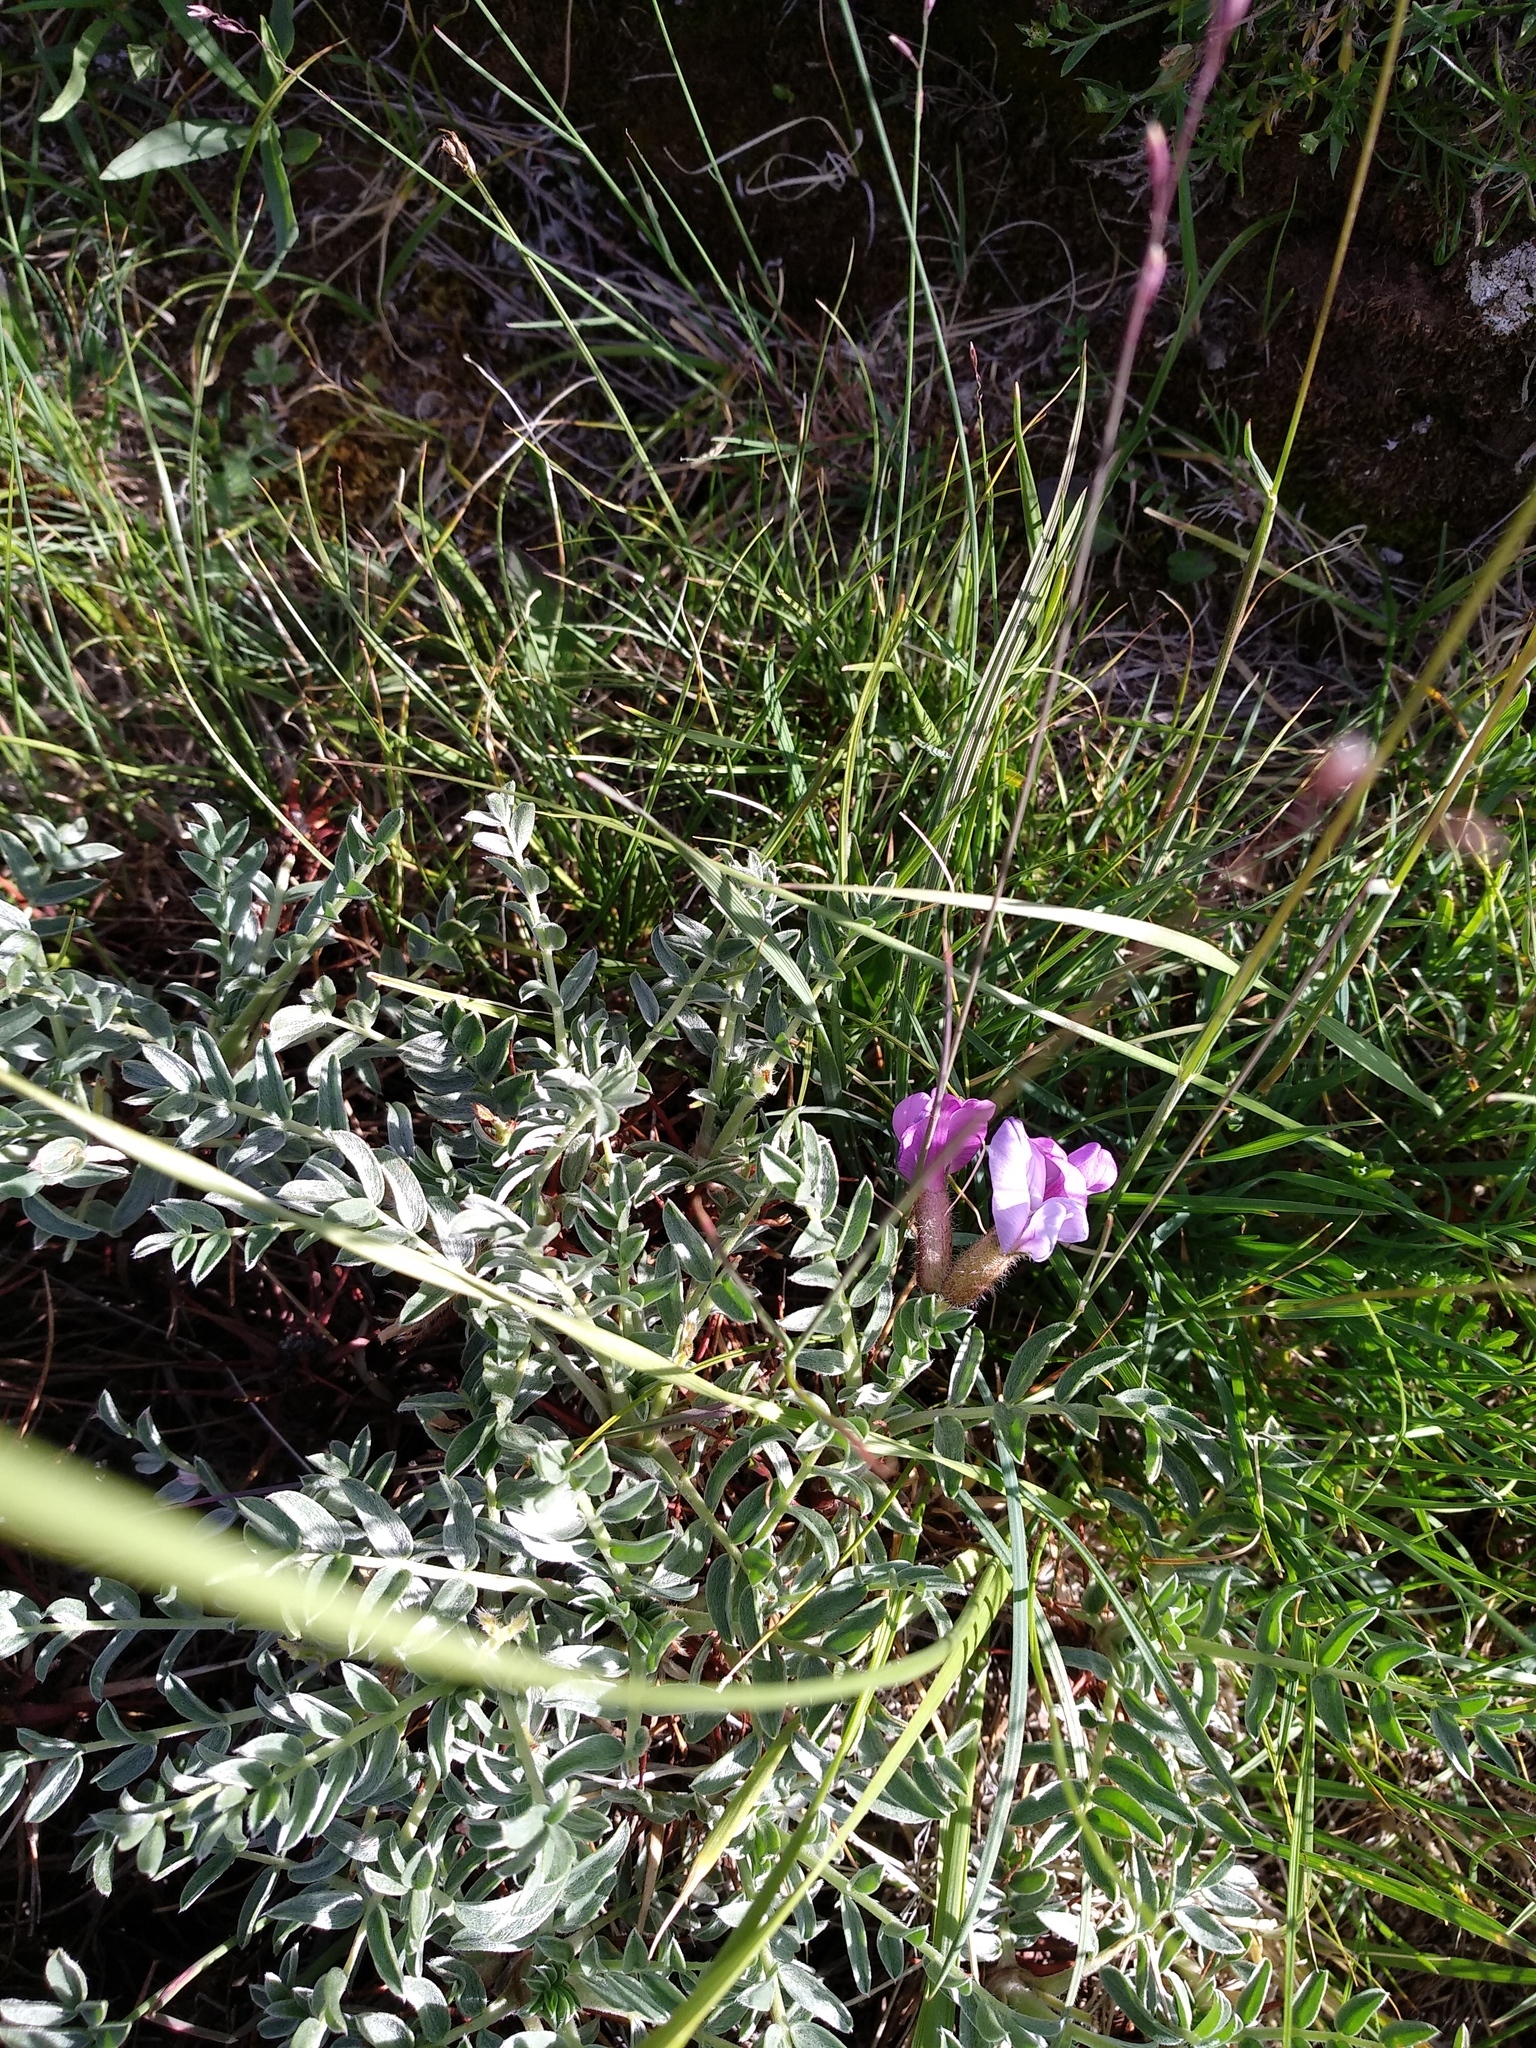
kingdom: Plantae
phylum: Tracheophyta
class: Magnoliopsida
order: Fabales
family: Fabaceae
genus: Oxytropis
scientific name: Oxytropis tragacanthoides
